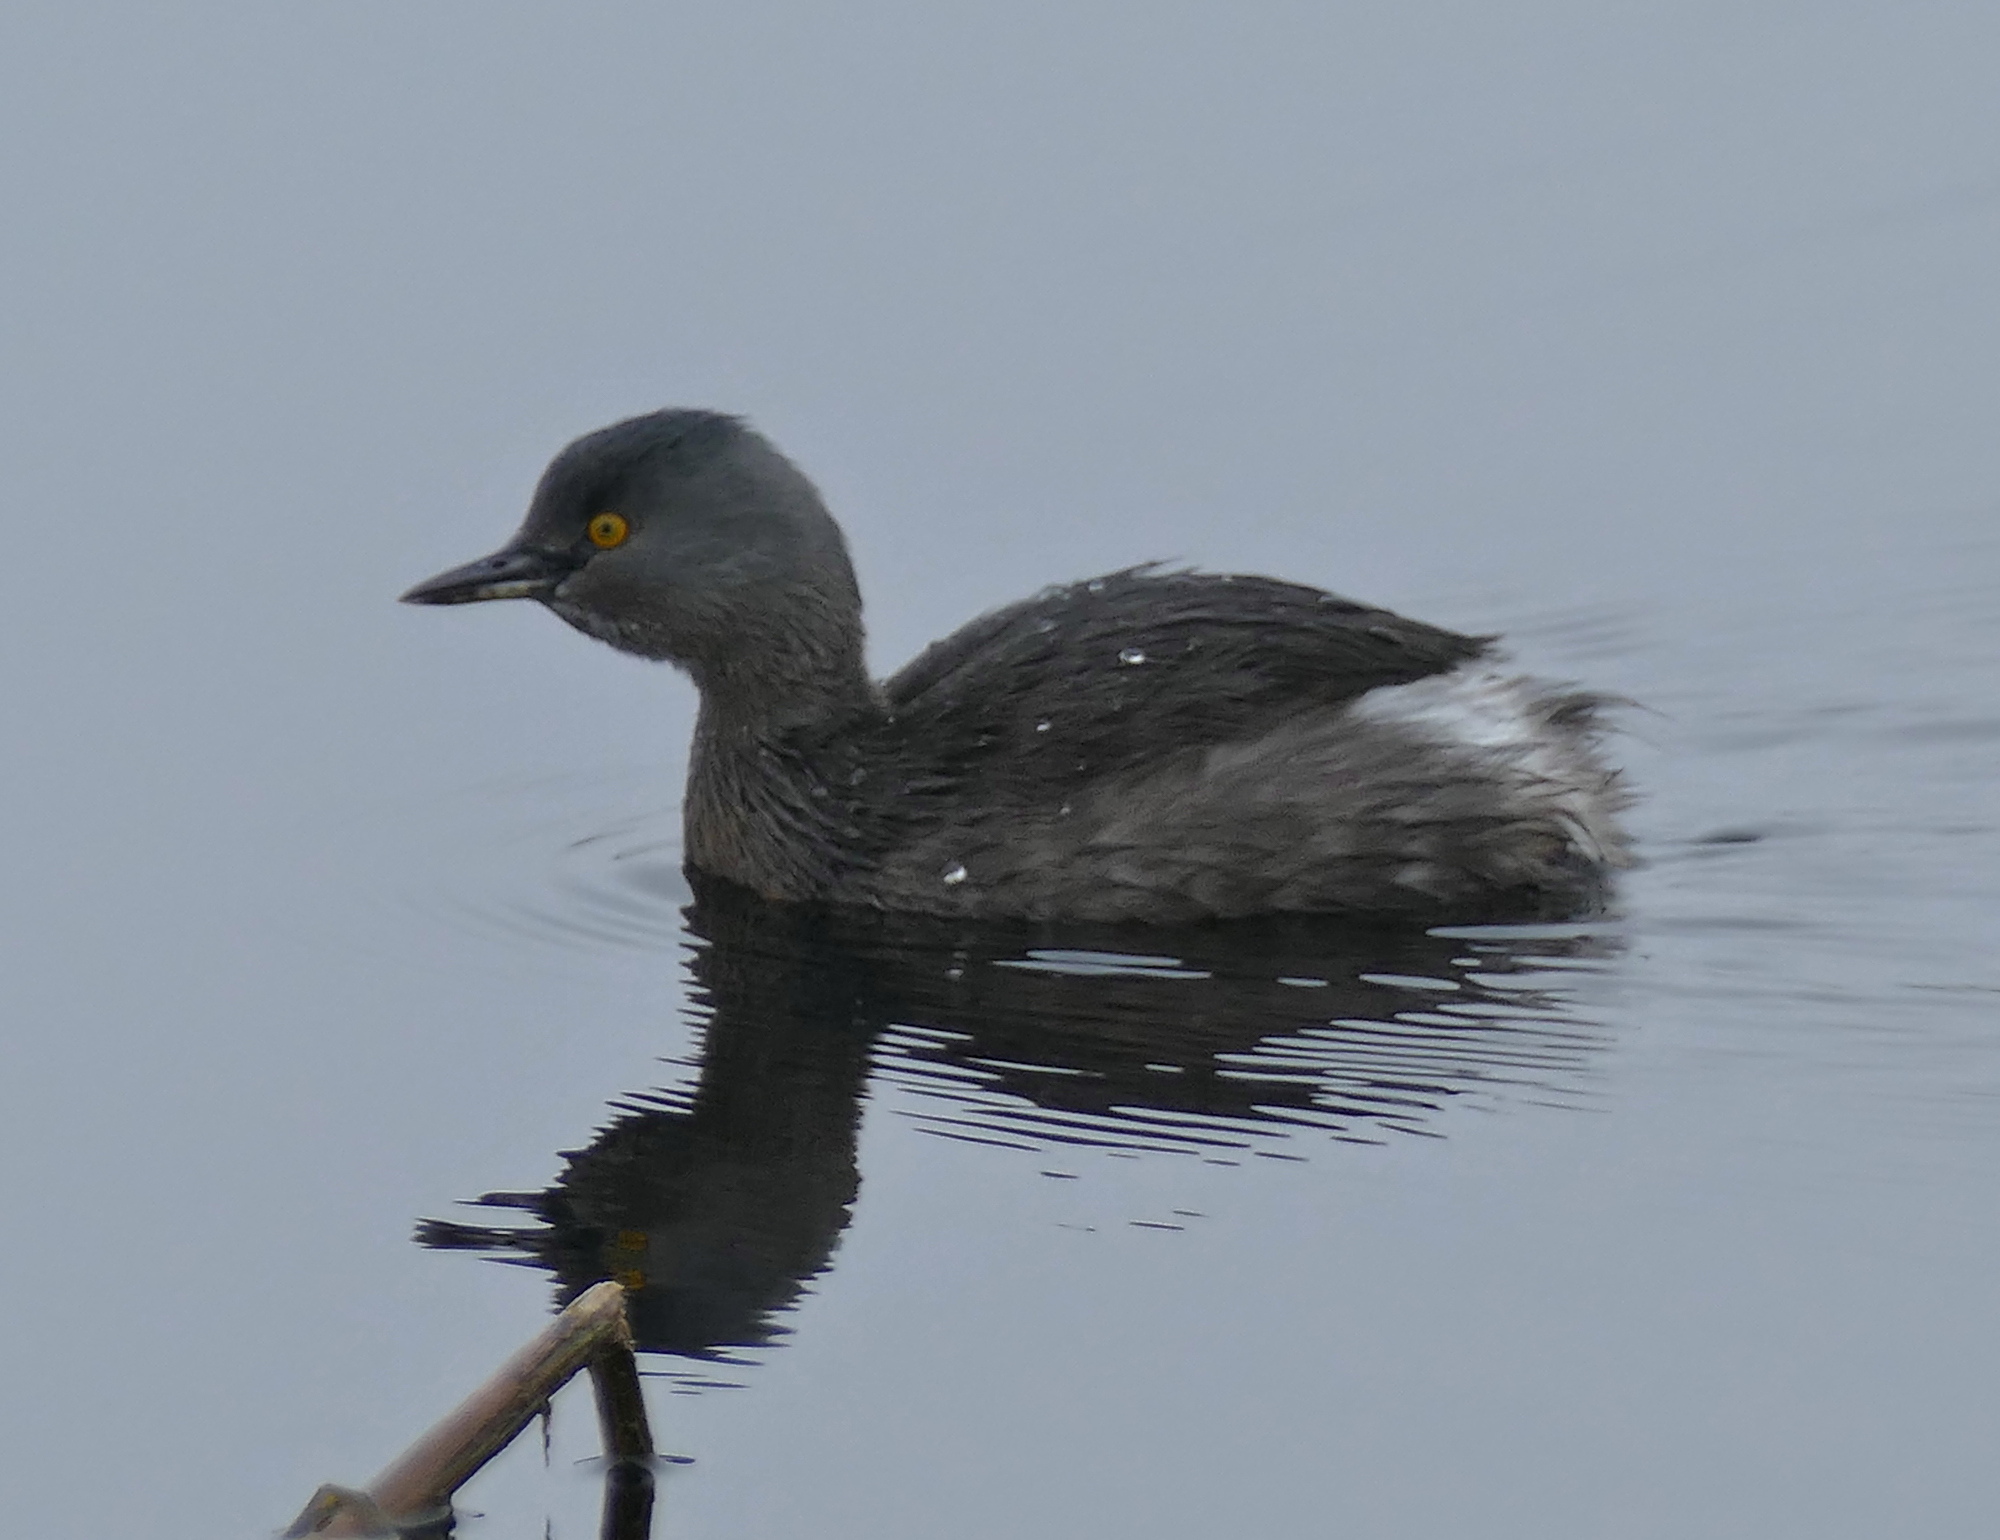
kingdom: Animalia
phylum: Chordata
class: Aves
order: Podicipediformes
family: Podicipedidae
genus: Tachybaptus
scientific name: Tachybaptus dominicus
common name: Least grebe
